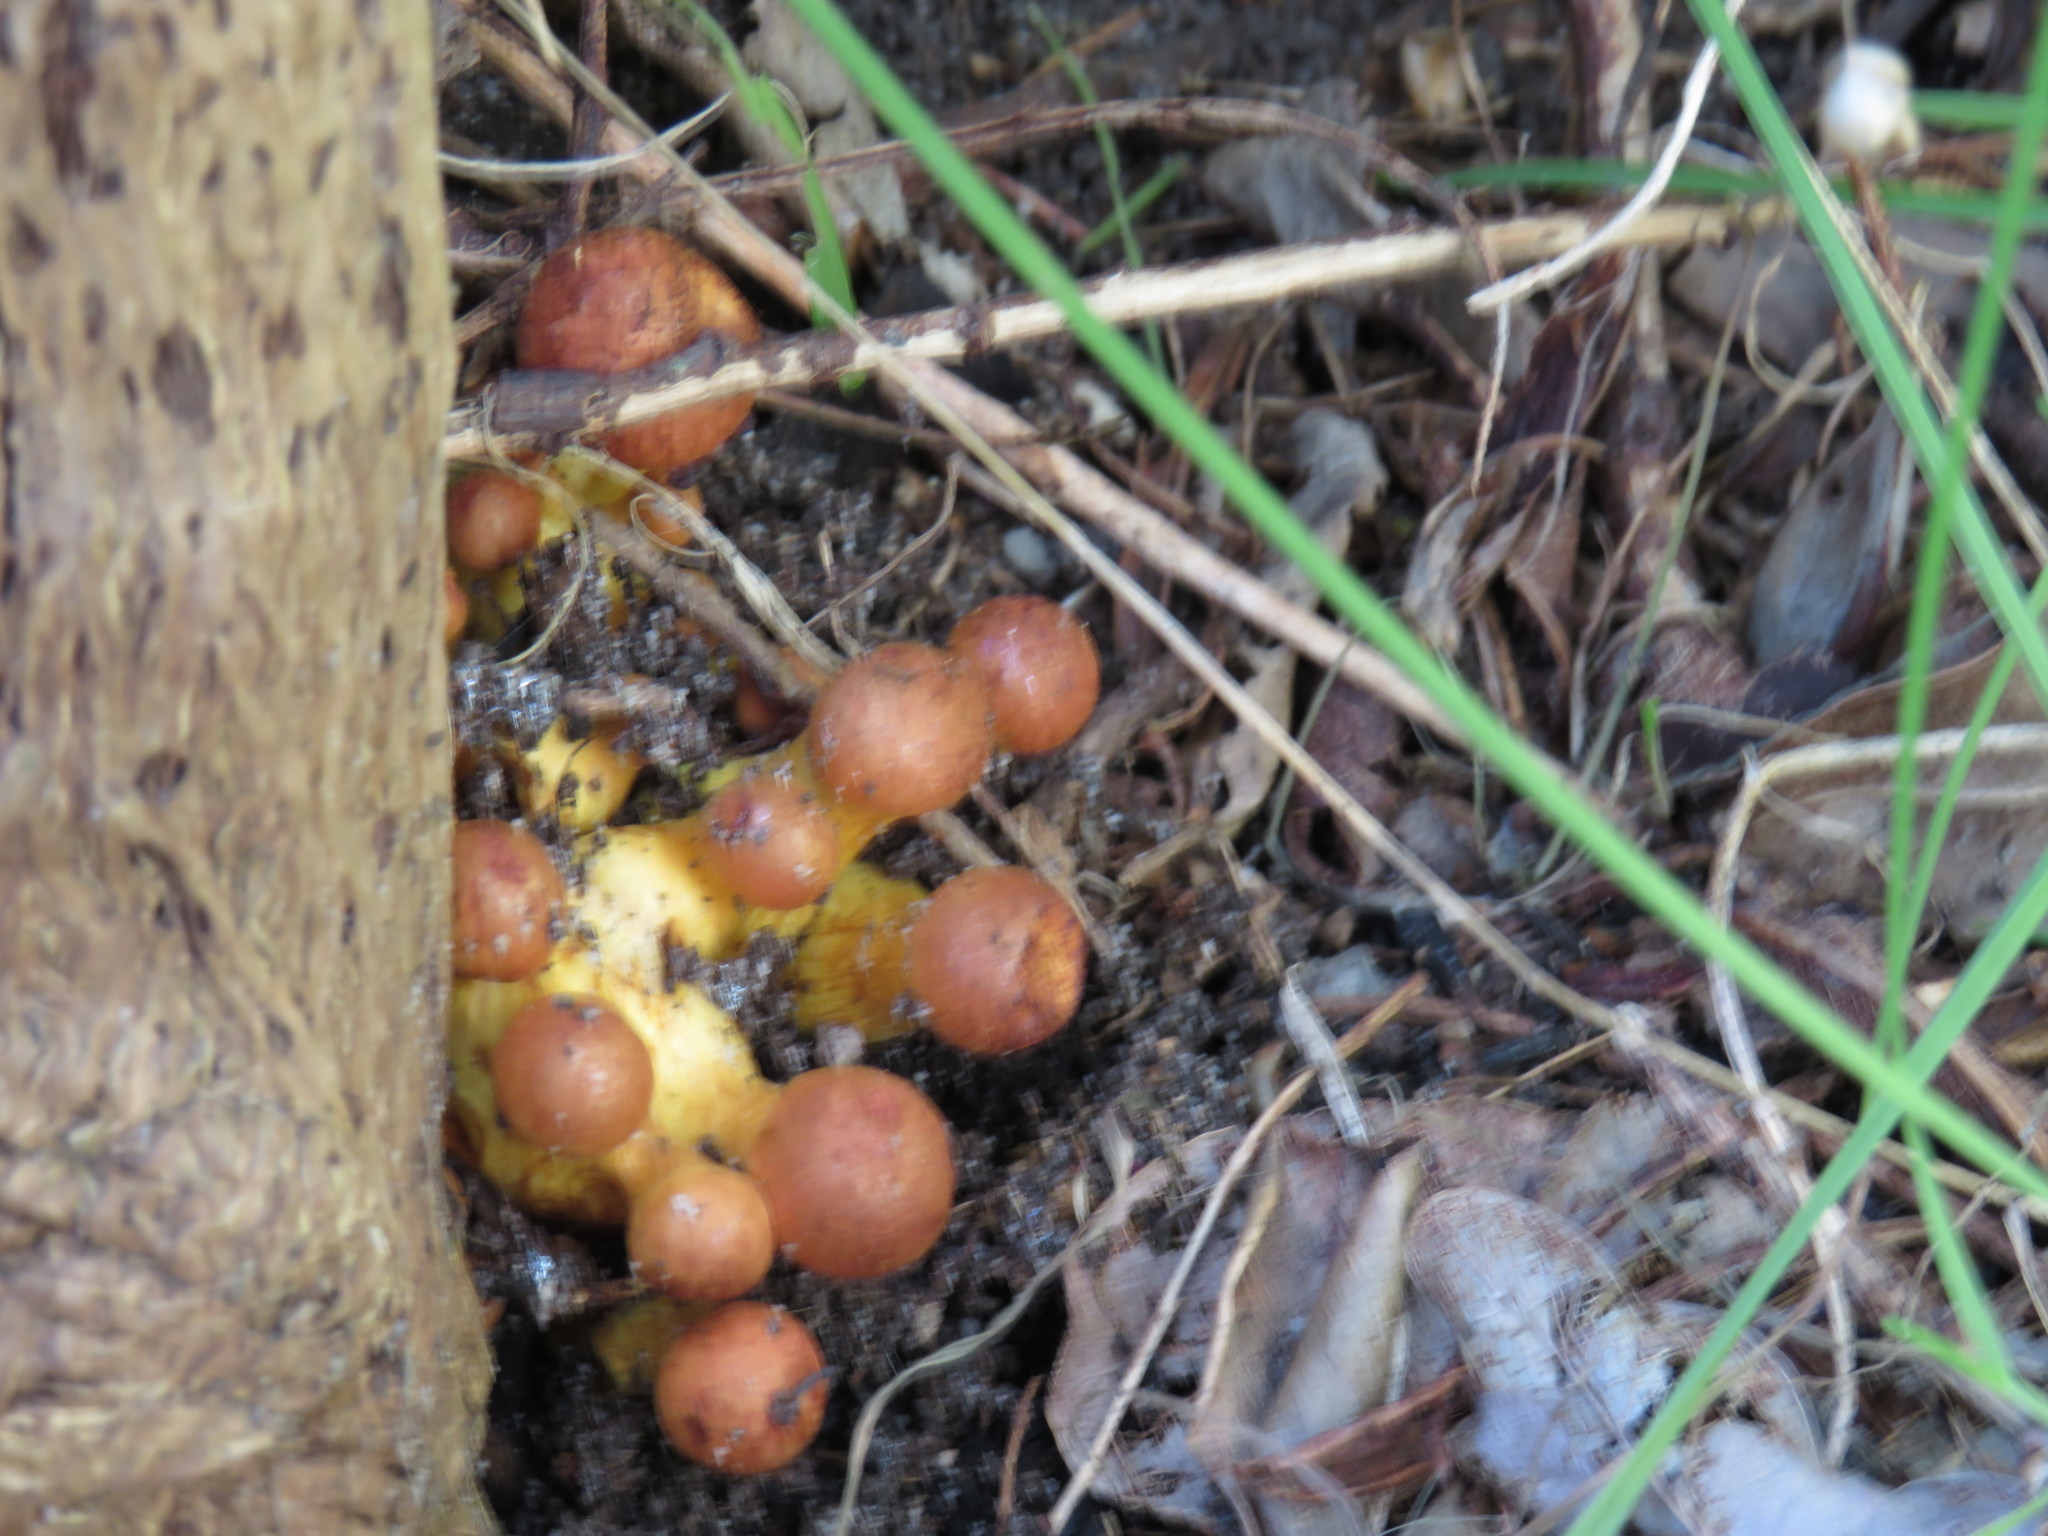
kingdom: Fungi
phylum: Basidiomycota
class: Agaricomycetes
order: Agaricales
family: Hymenogastraceae
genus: Gymnopilus
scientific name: Gymnopilus junonius
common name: Spectacular rustgill
